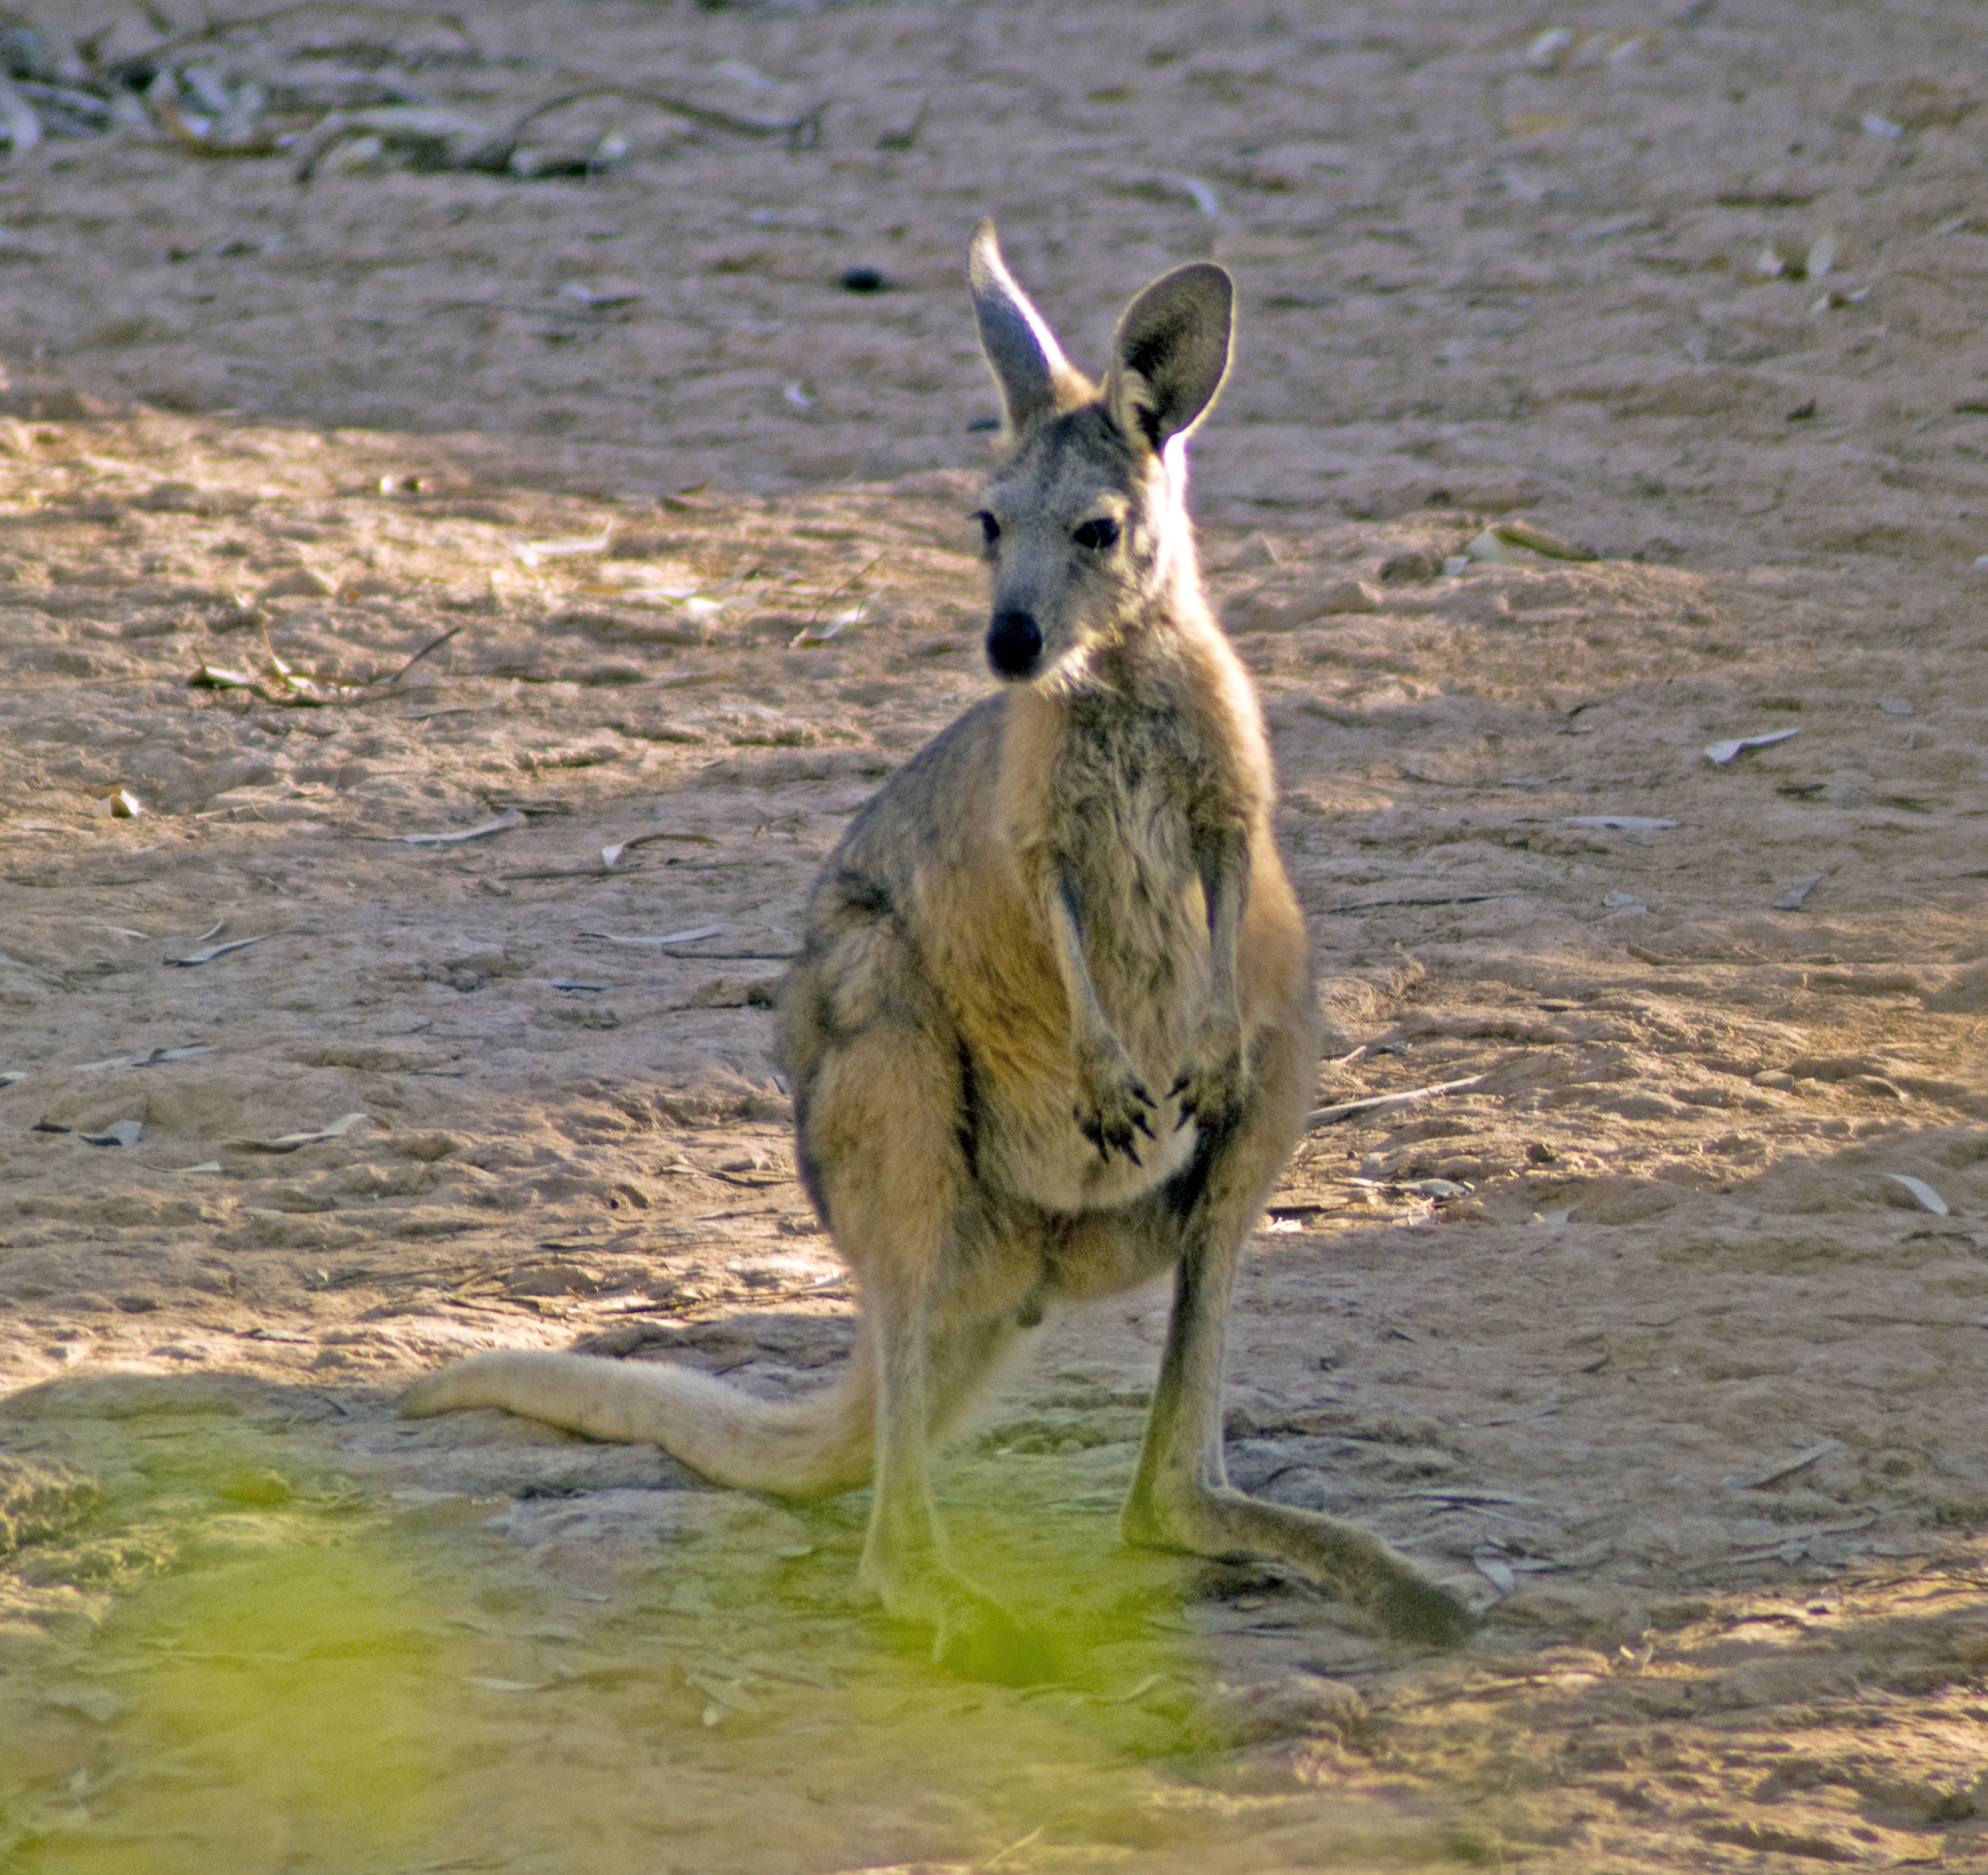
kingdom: Animalia
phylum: Chordata
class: Mammalia
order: Diprotodontia
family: Macropodidae
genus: Macropus
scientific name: Macropus robustus
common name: Eastern wallaroo
